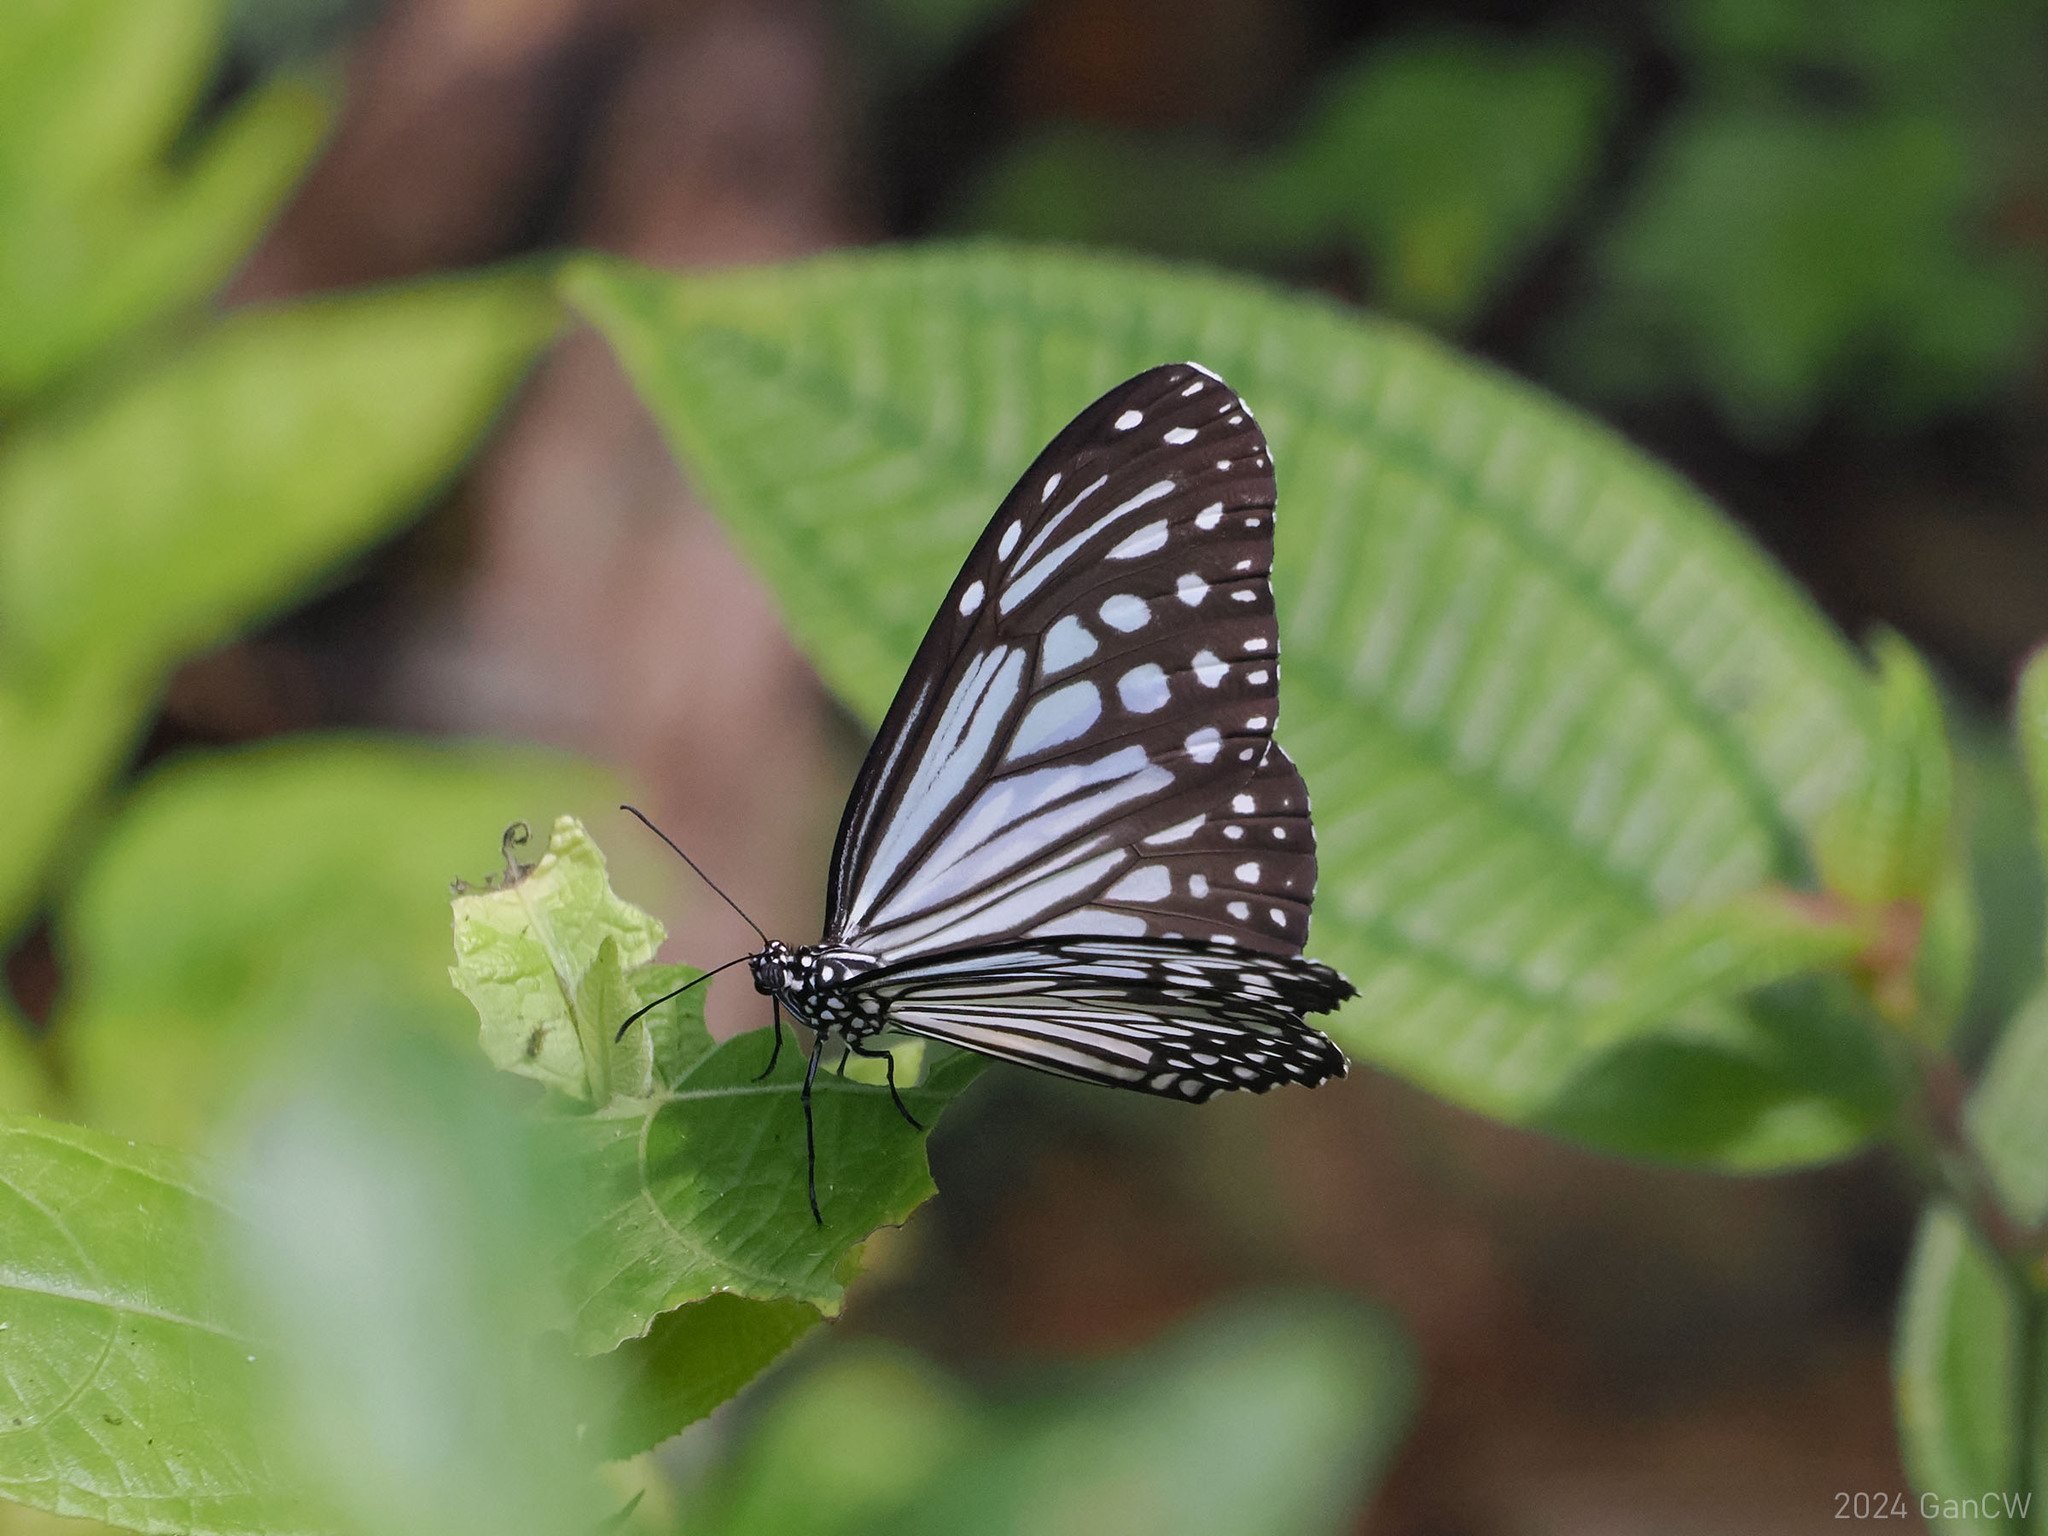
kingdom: Animalia
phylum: Arthropoda
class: Insecta
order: Lepidoptera
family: Nymphalidae
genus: Parantica
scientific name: Parantica aglea
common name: Glassy tiger
